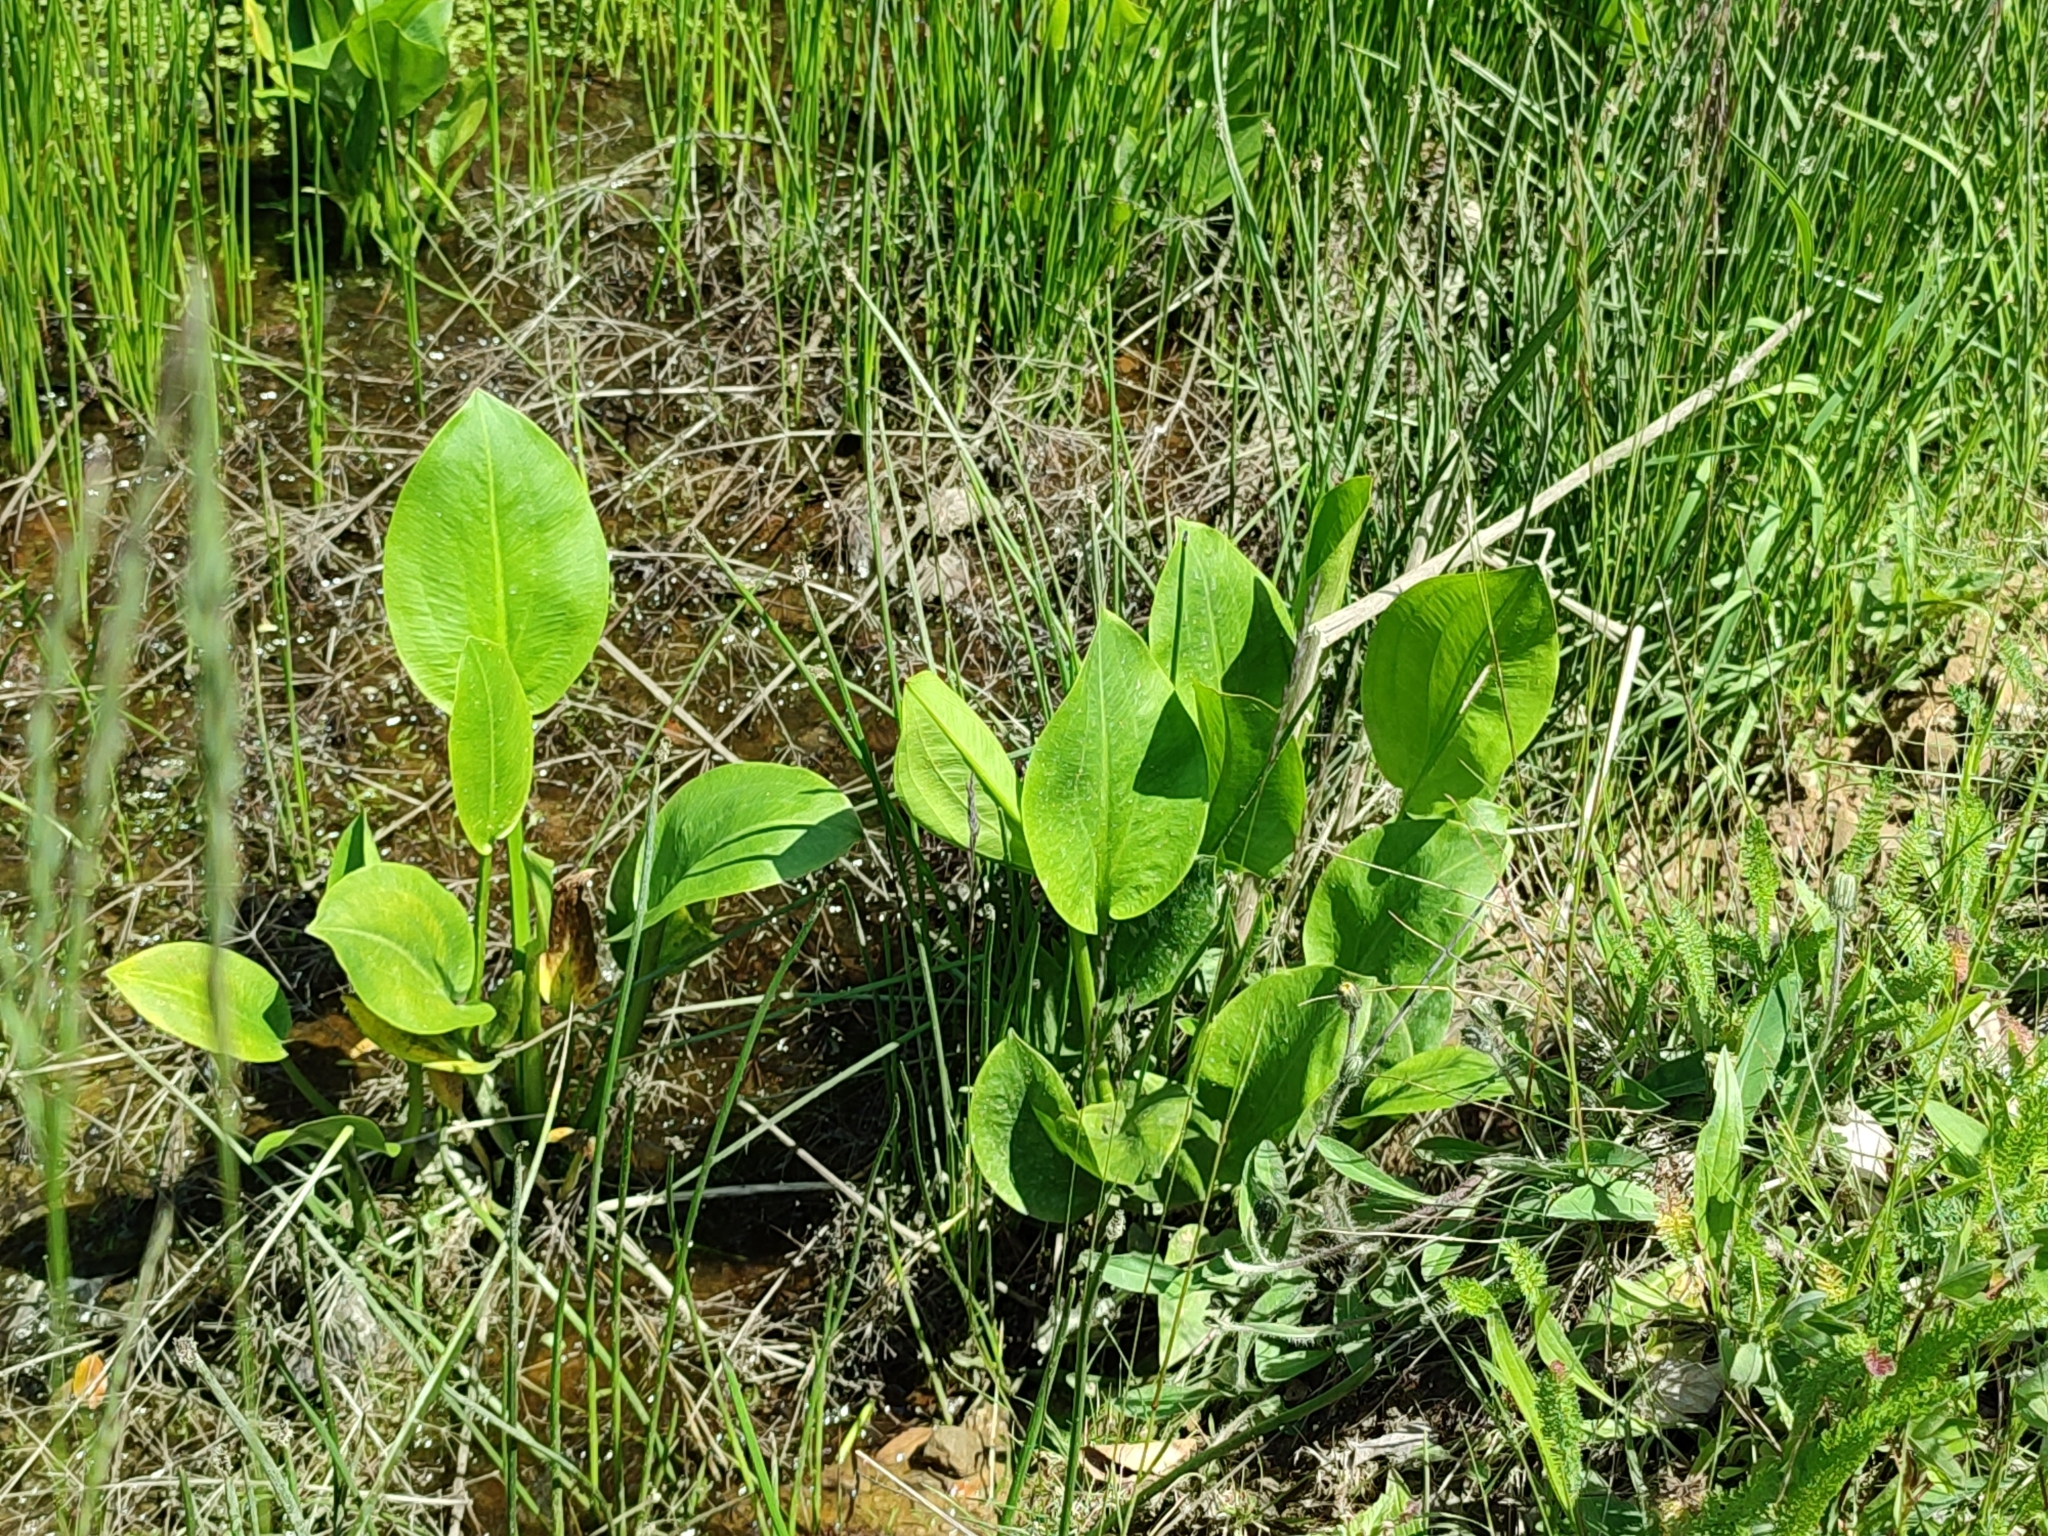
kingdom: Plantae
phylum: Tracheophyta
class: Liliopsida
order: Alismatales
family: Alismataceae
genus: Alisma
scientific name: Alisma plantago-aquatica
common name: Water-plantain
